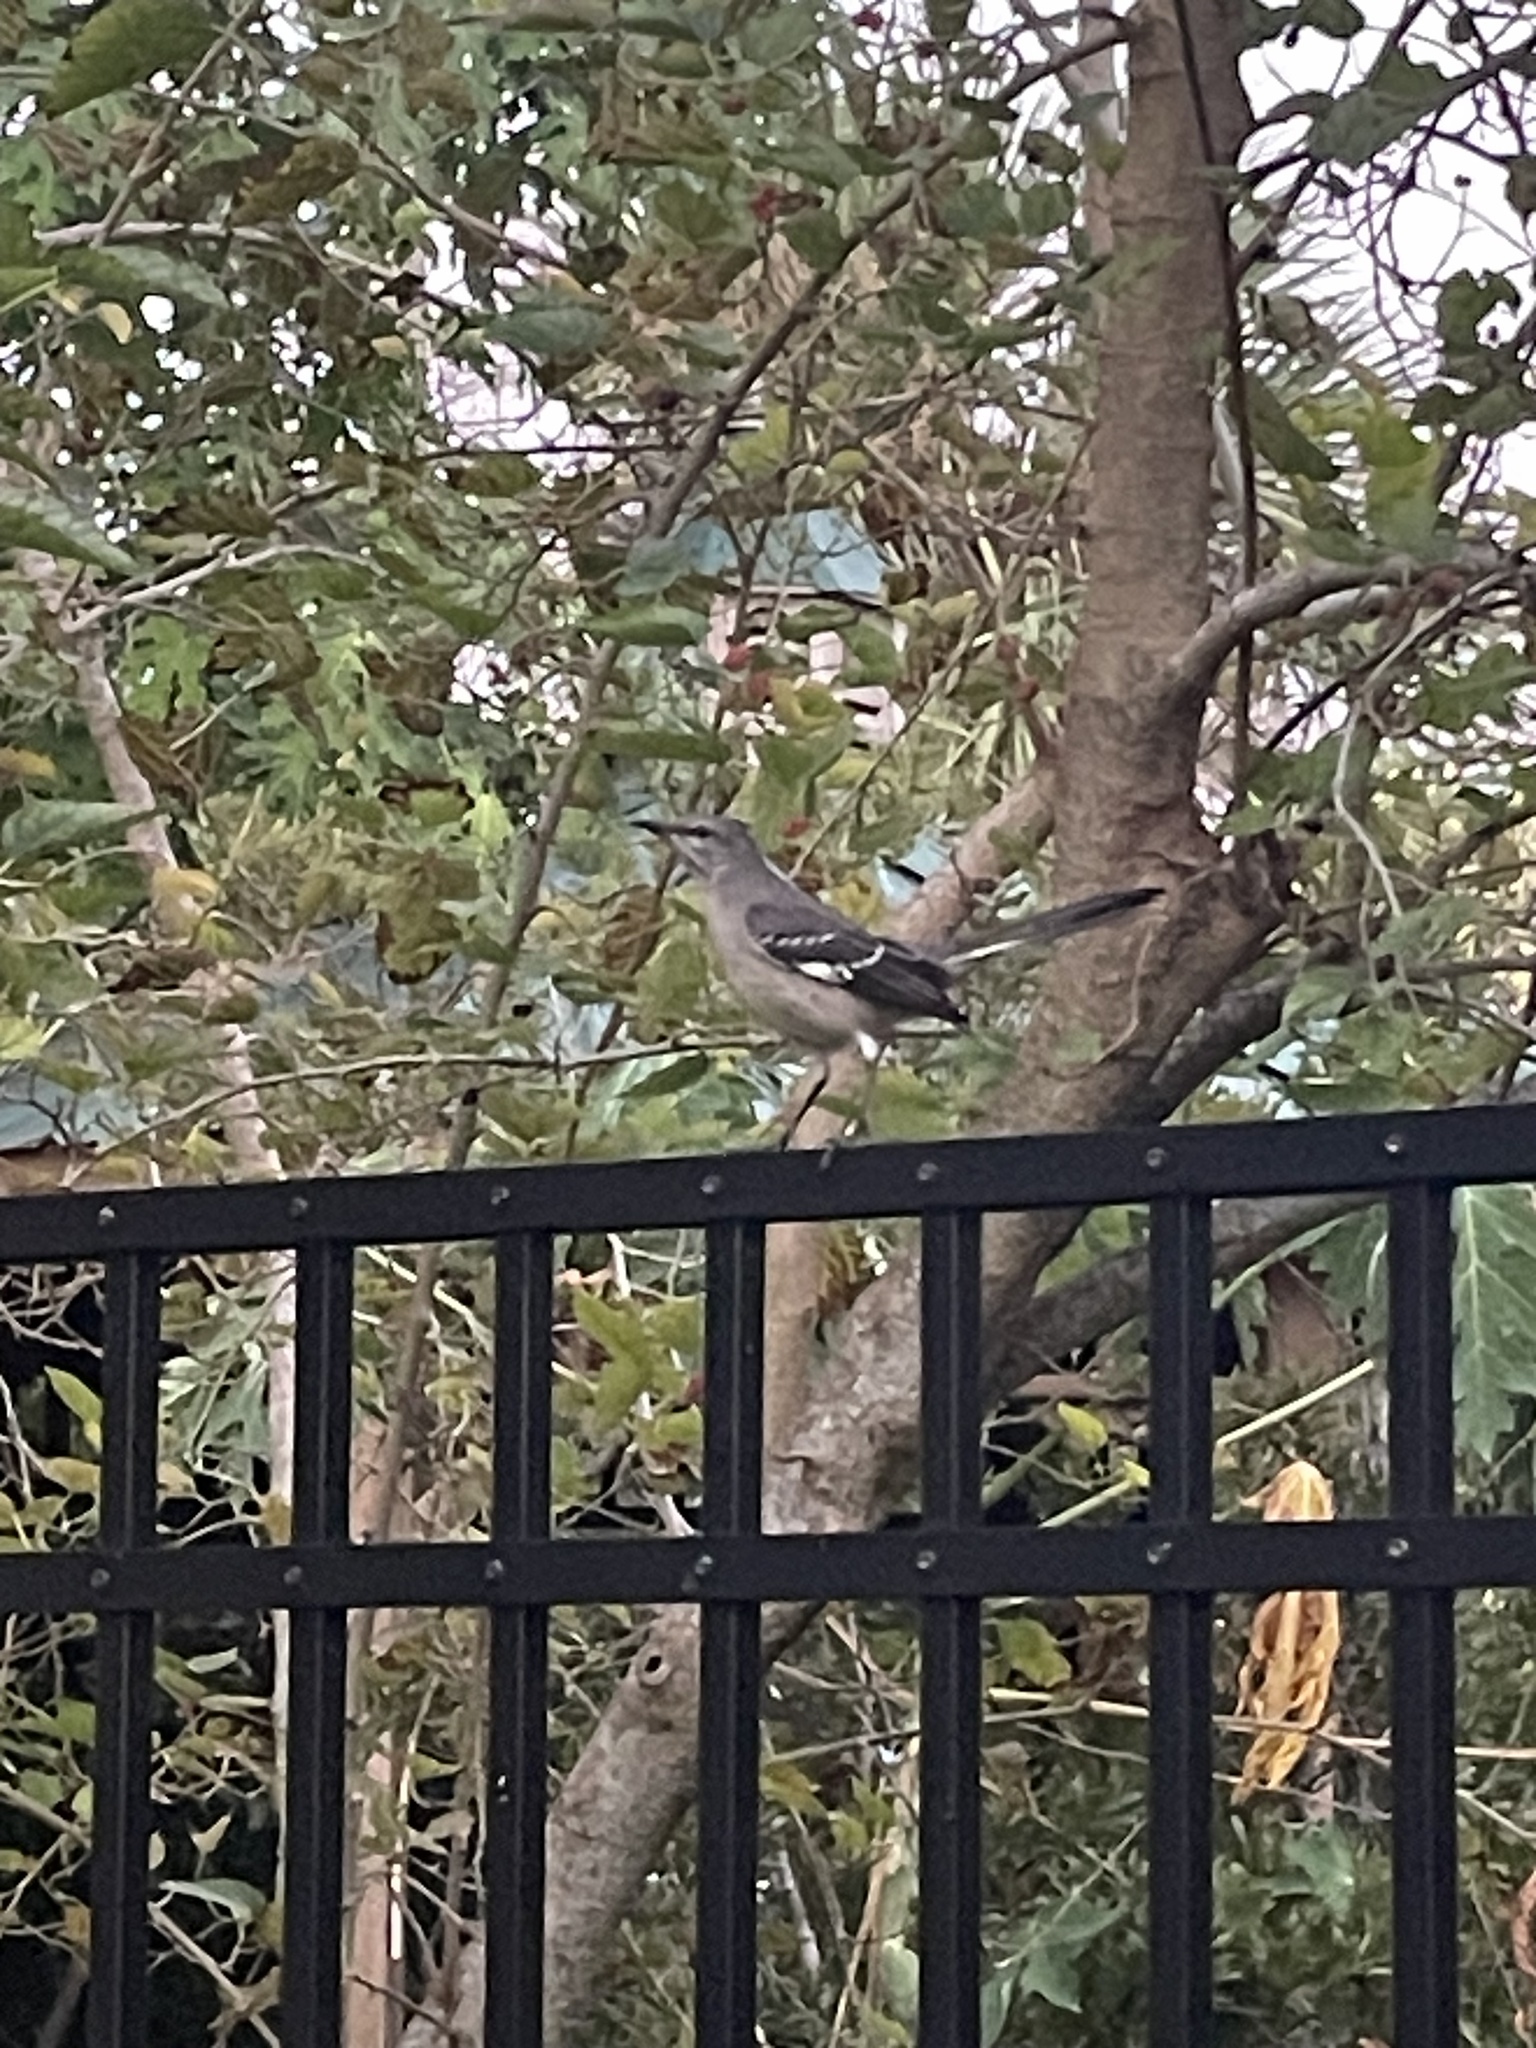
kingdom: Animalia
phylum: Chordata
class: Aves
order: Passeriformes
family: Mimidae
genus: Mimus
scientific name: Mimus polyglottos
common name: Northern mockingbird
